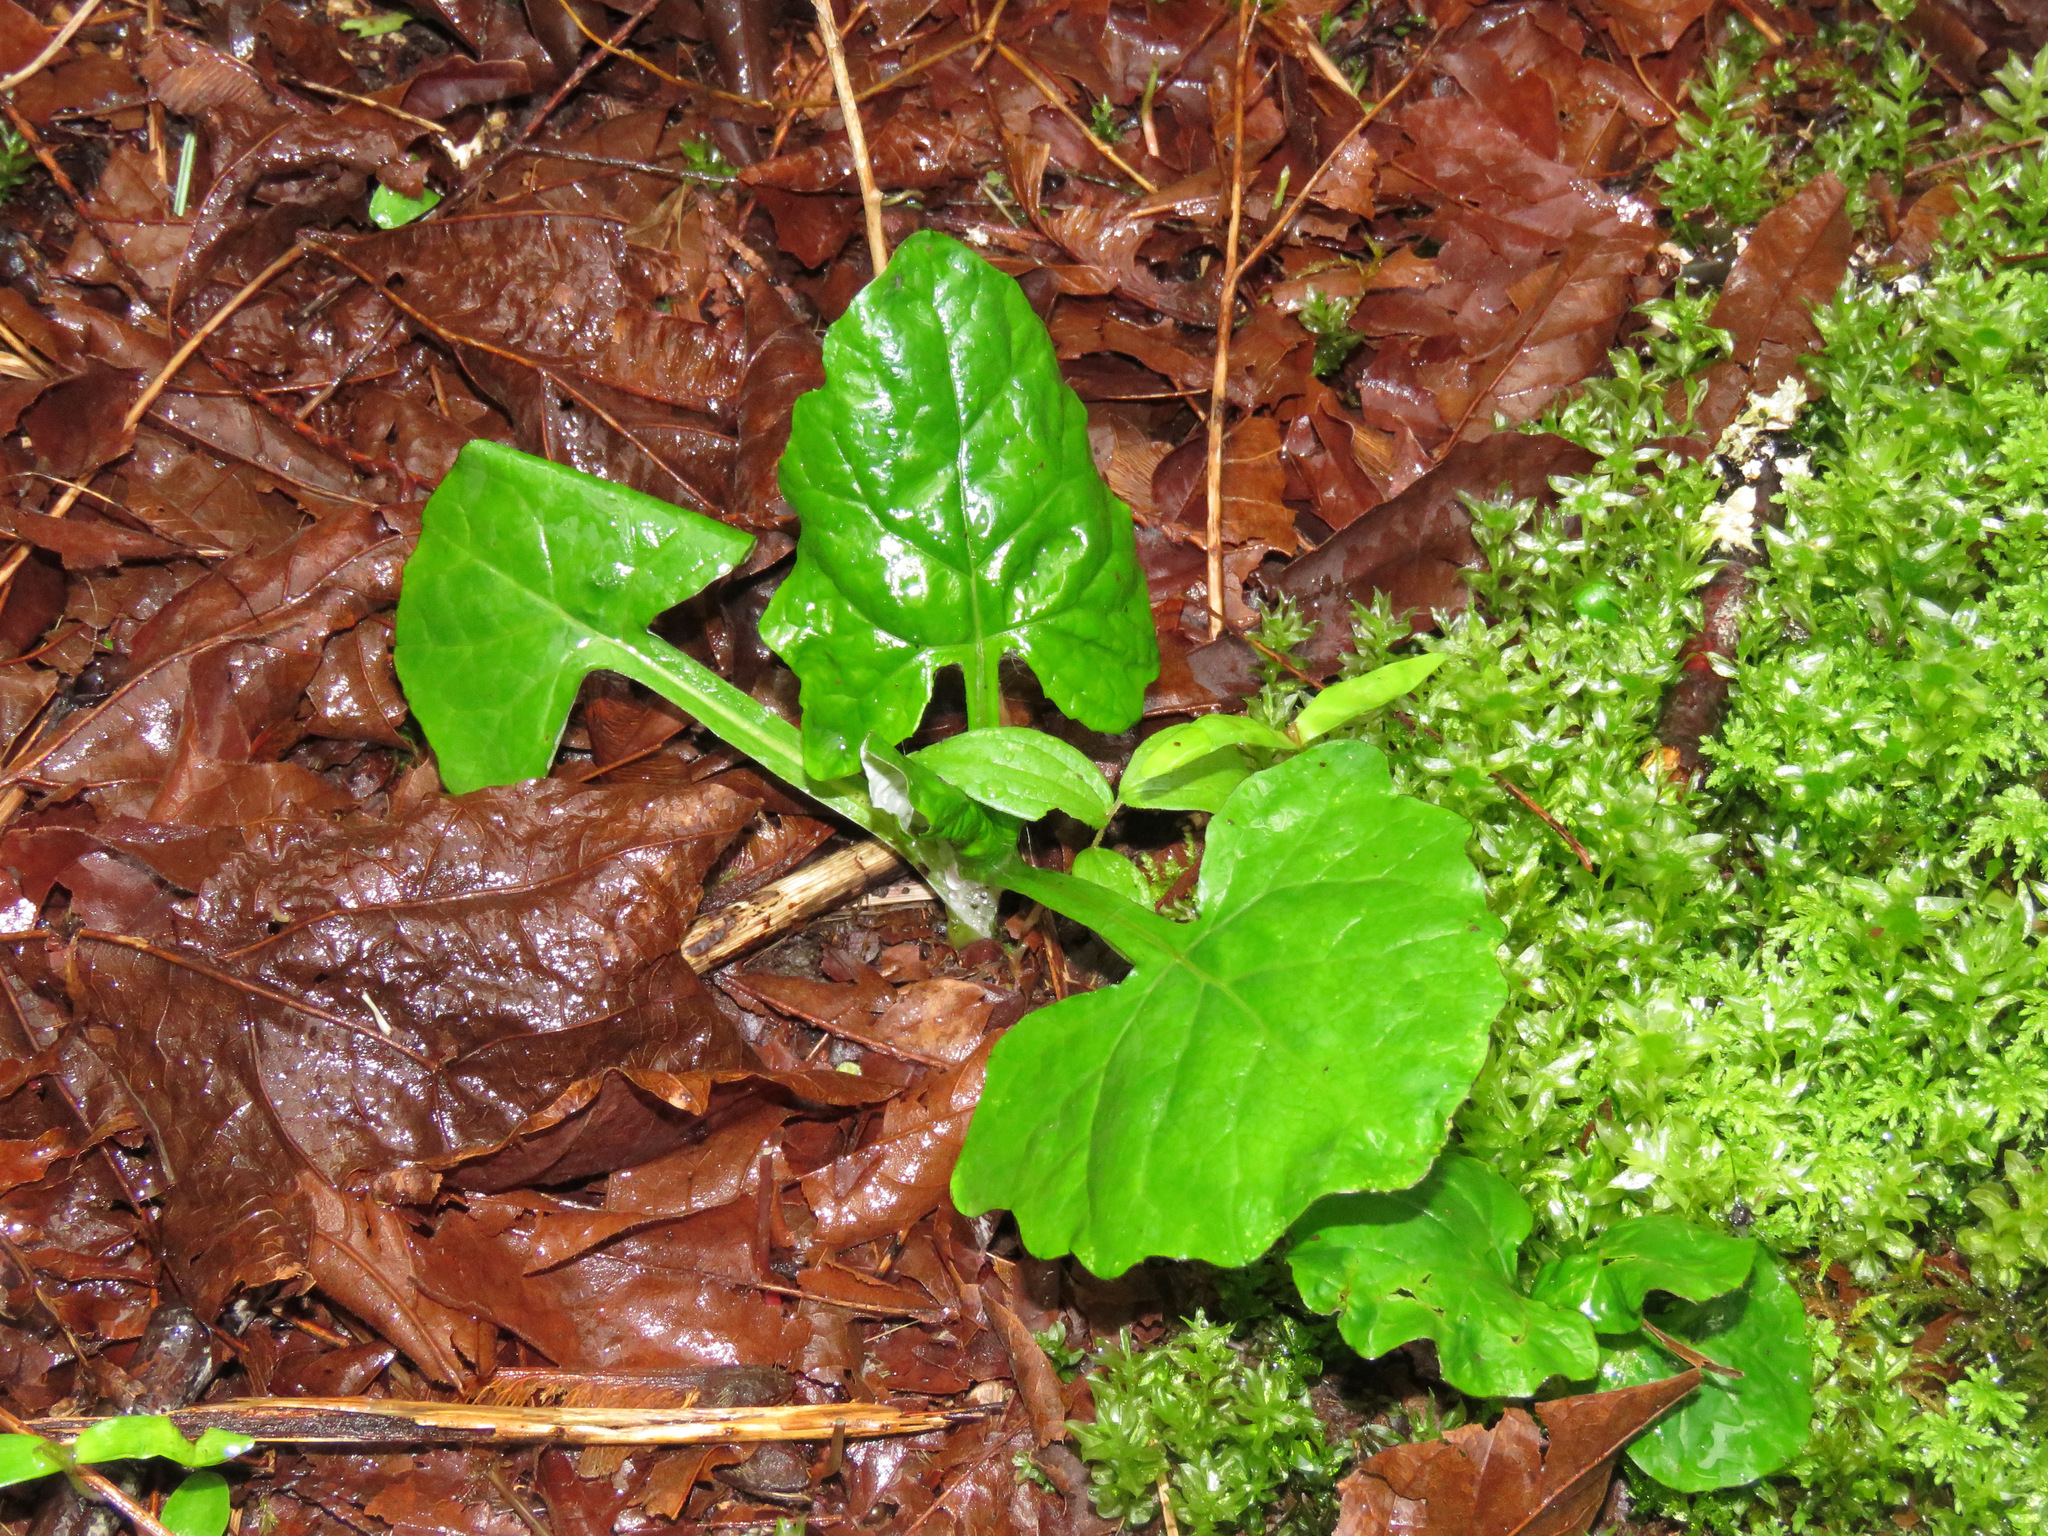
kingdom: Plantae
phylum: Tracheophyta
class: Magnoliopsida
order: Asterales
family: Asteraceae
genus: Adenocaulon
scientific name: Adenocaulon bicolor
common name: Trailplant
